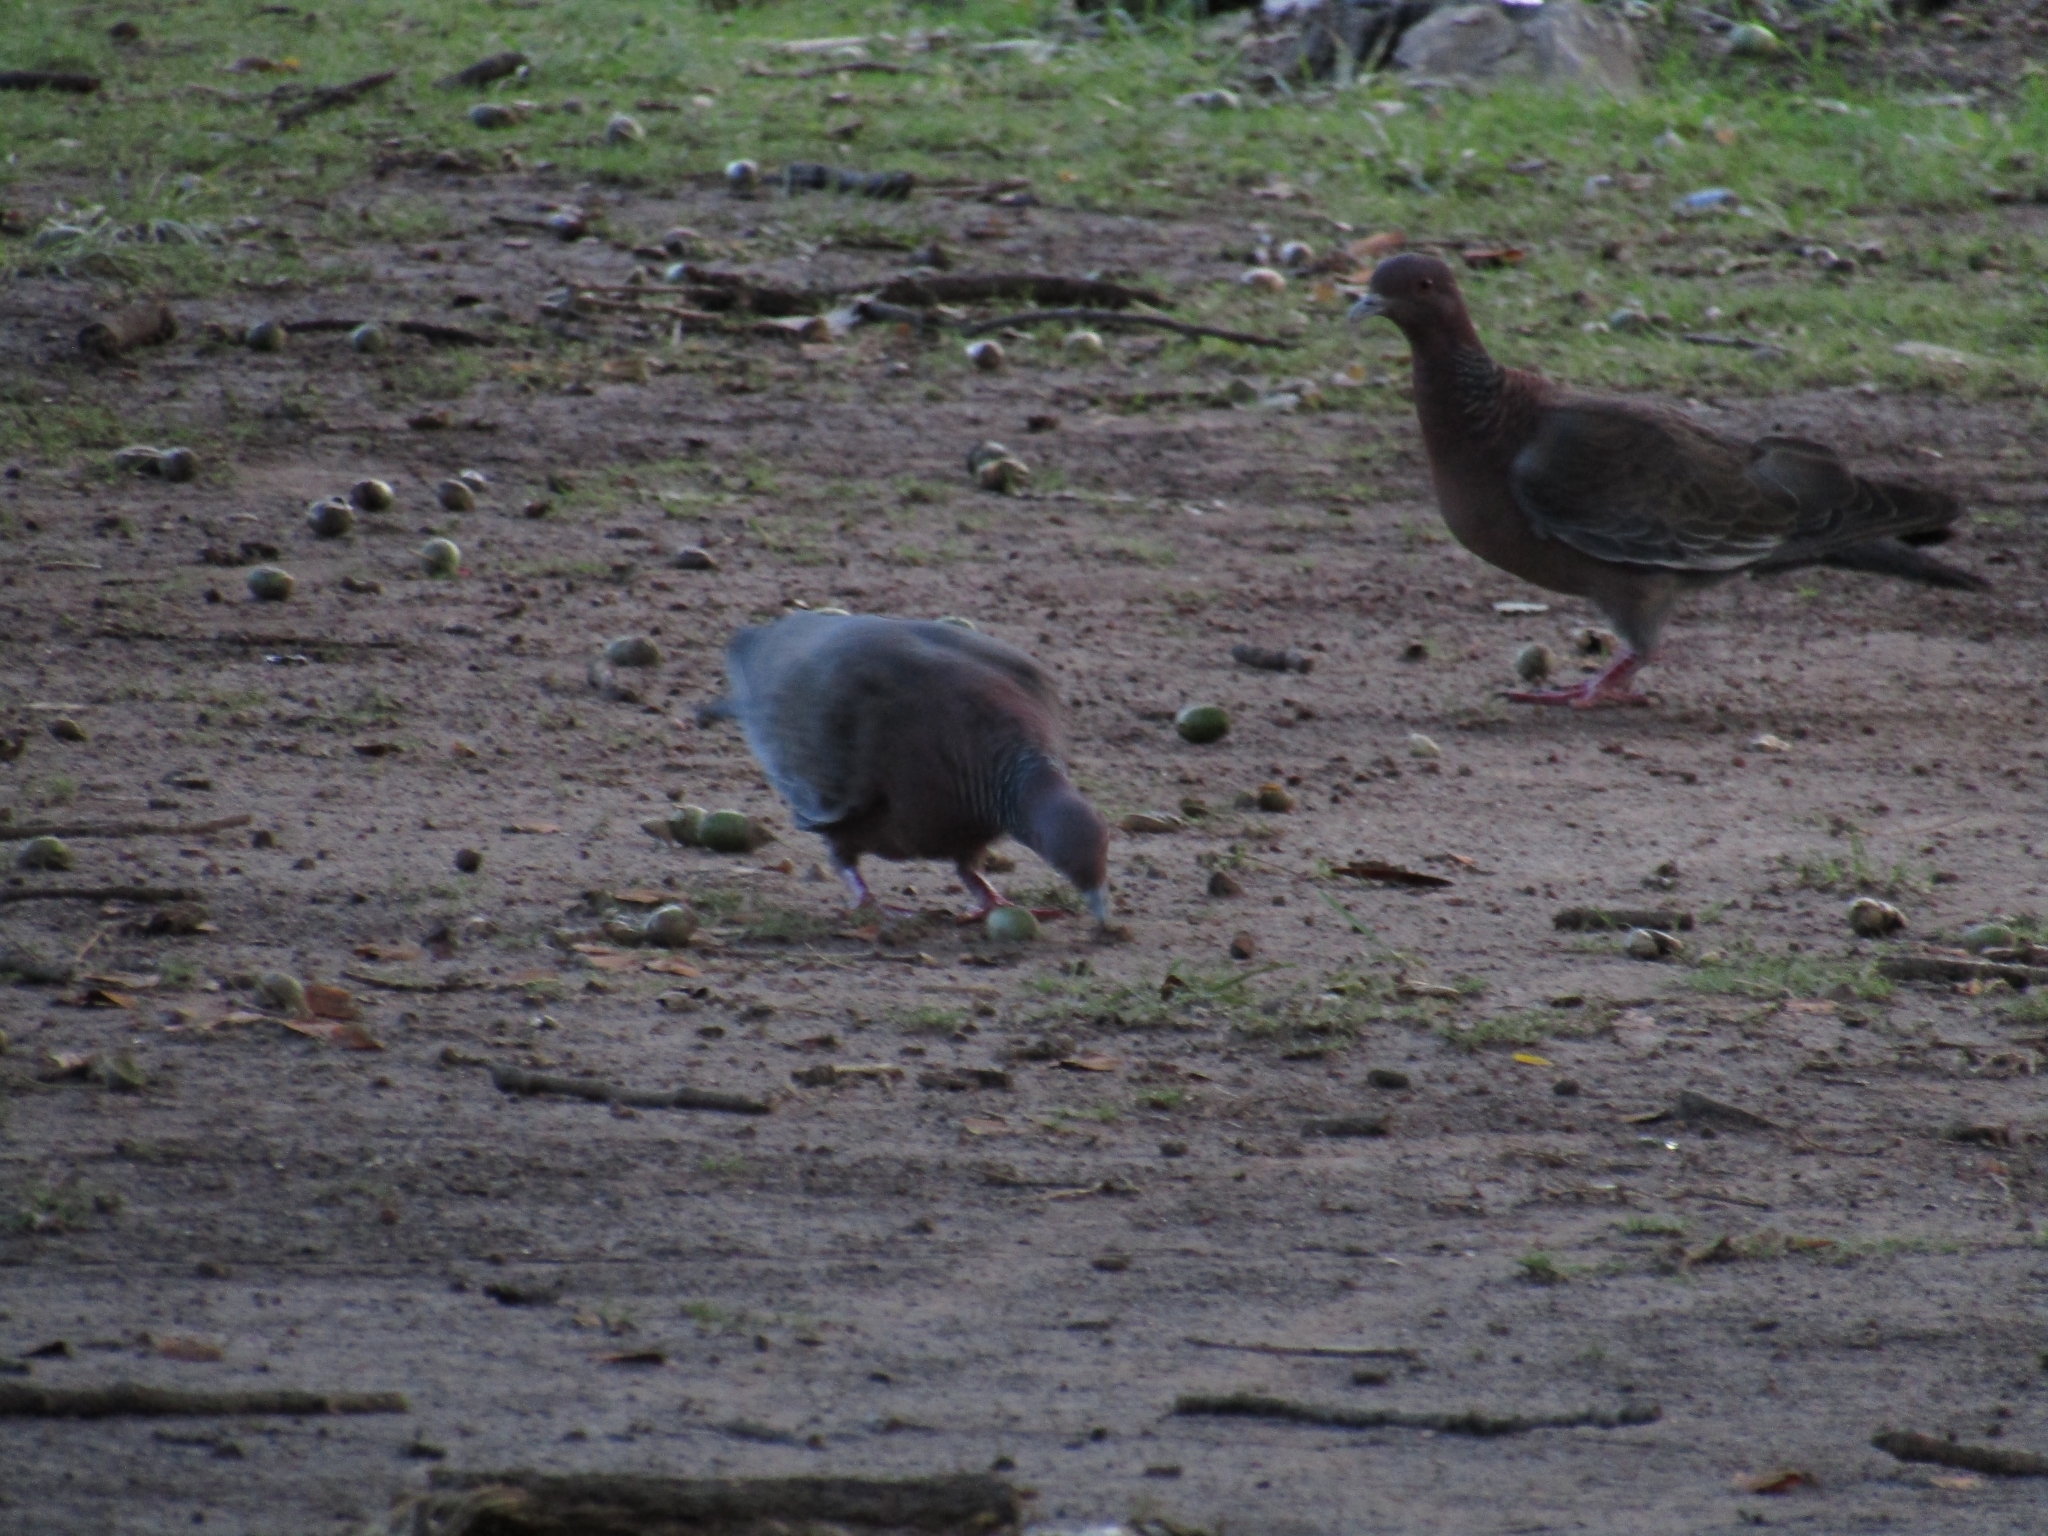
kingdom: Animalia
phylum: Chordata
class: Aves
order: Columbiformes
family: Columbidae
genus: Patagioenas
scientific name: Patagioenas picazuro
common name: Picazuro pigeon
